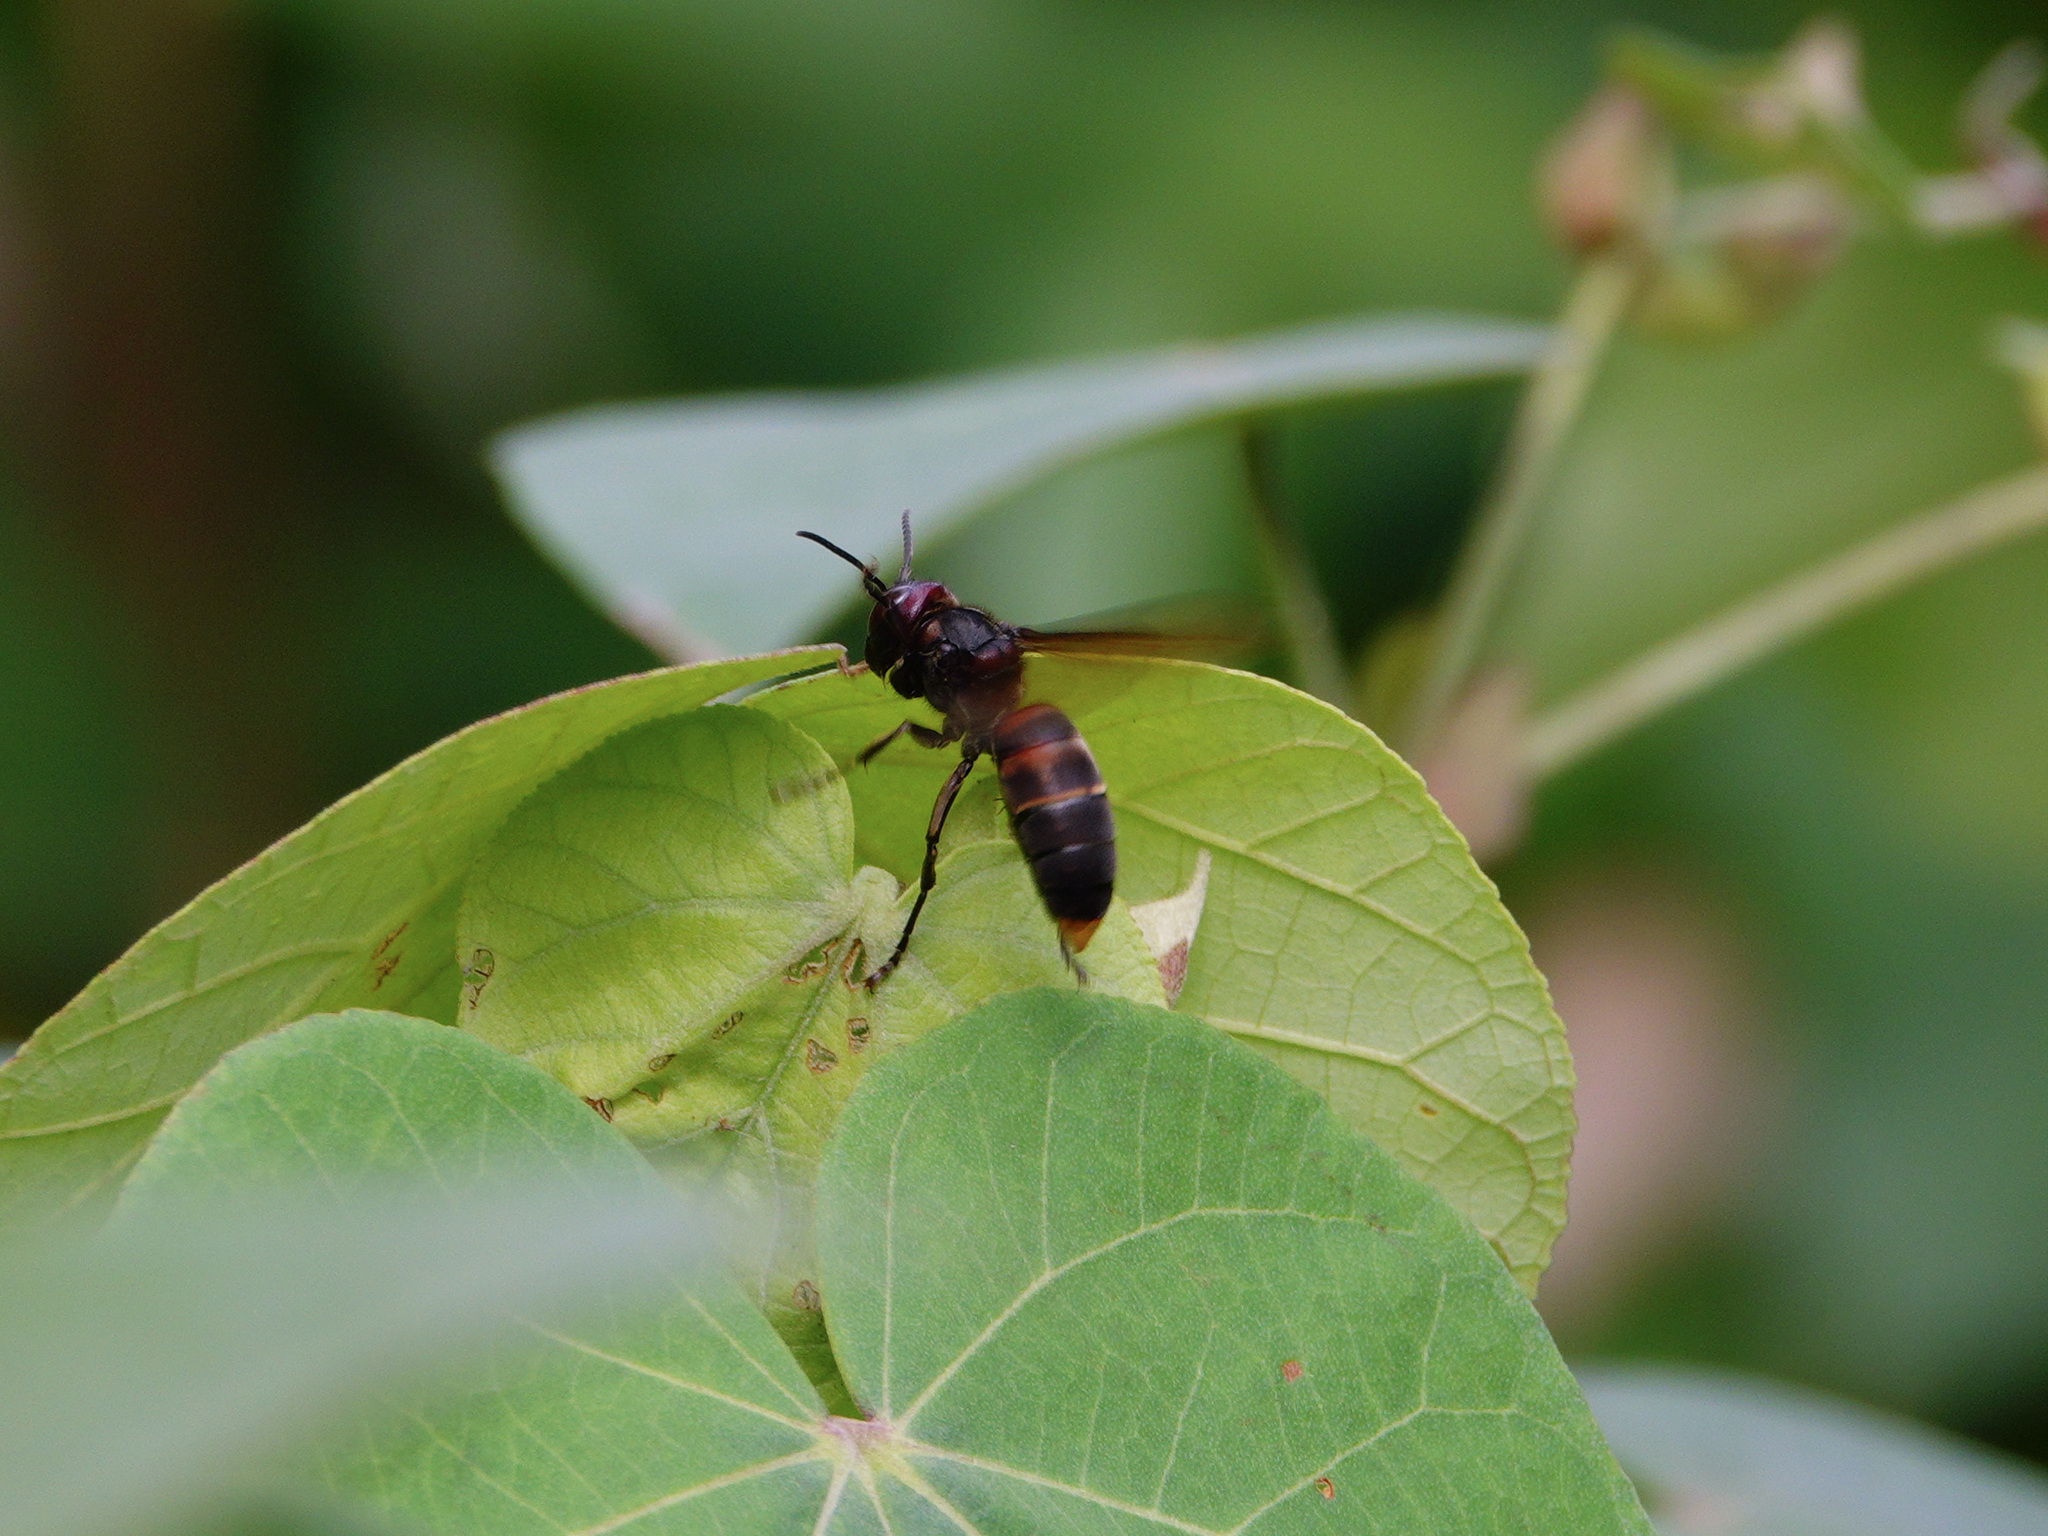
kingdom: Animalia
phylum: Arthropoda
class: Insecta
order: Hymenoptera
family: Vespidae
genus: Vespa
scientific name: Vespa analis
